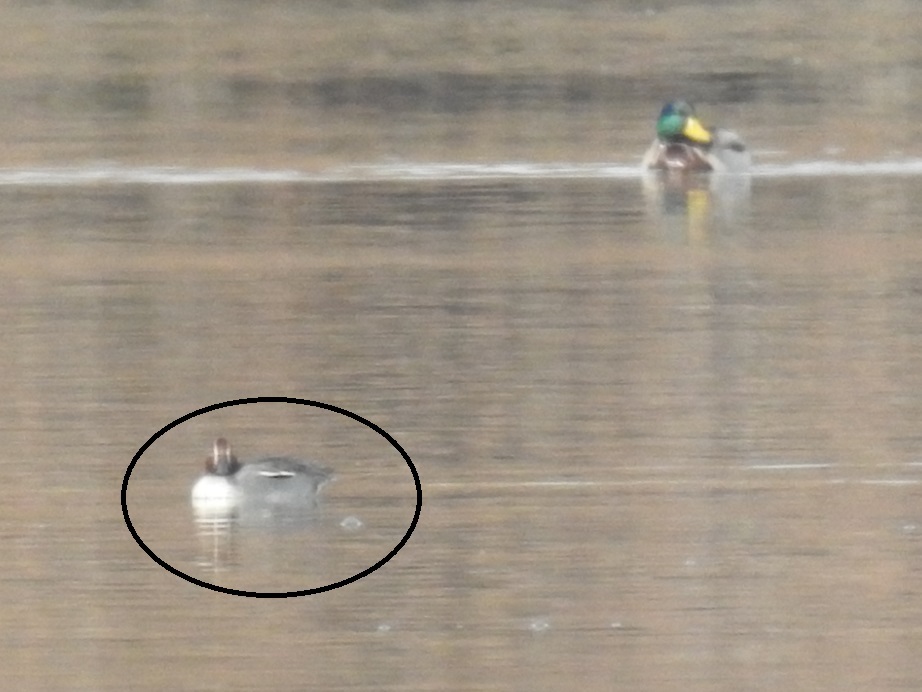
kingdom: Animalia
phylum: Chordata
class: Aves
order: Anseriformes
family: Anatidae
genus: Anas
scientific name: Anas crecca
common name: Eurasian teal
